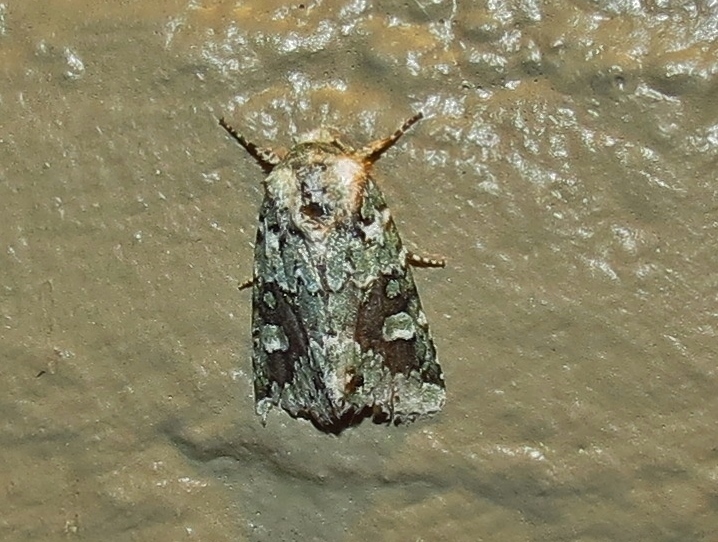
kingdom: Animalia
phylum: Arthropoda
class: Insecta
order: Lepidoptera
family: Noctuidae
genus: Lacinipolia
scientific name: Lacinipolia laudabilis
